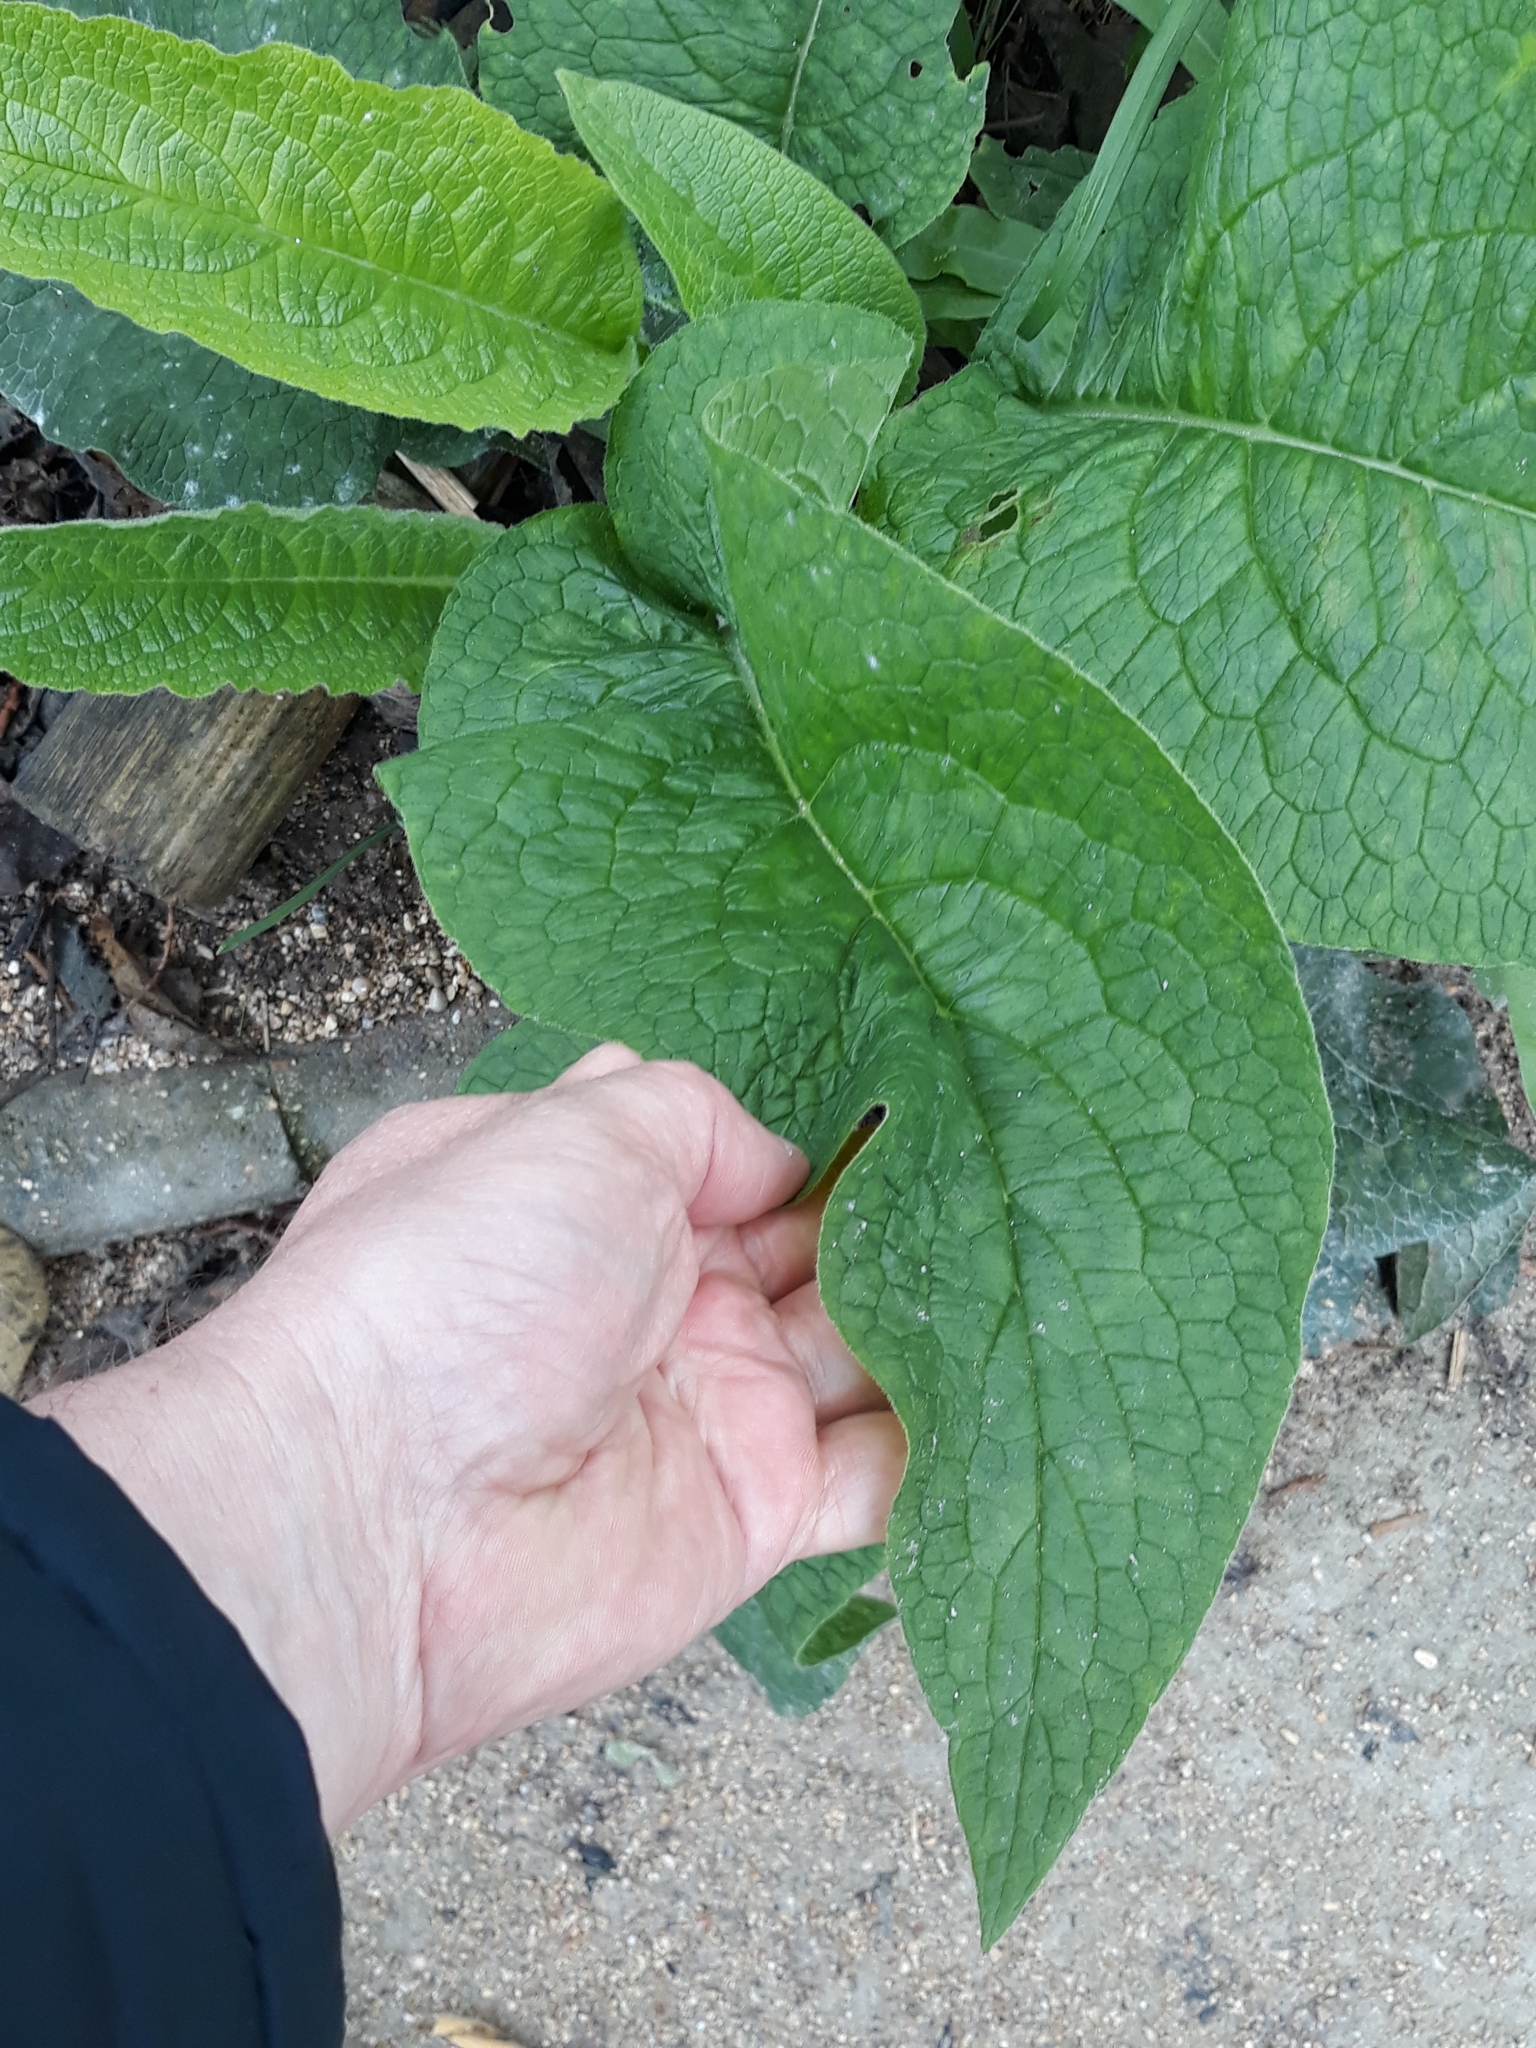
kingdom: Plantae
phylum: Tracheophyta
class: Magnoliopsida
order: Boraginales
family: Boraginaceae
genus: Symphytum
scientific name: Symphytum officinale
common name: Common comfrey
